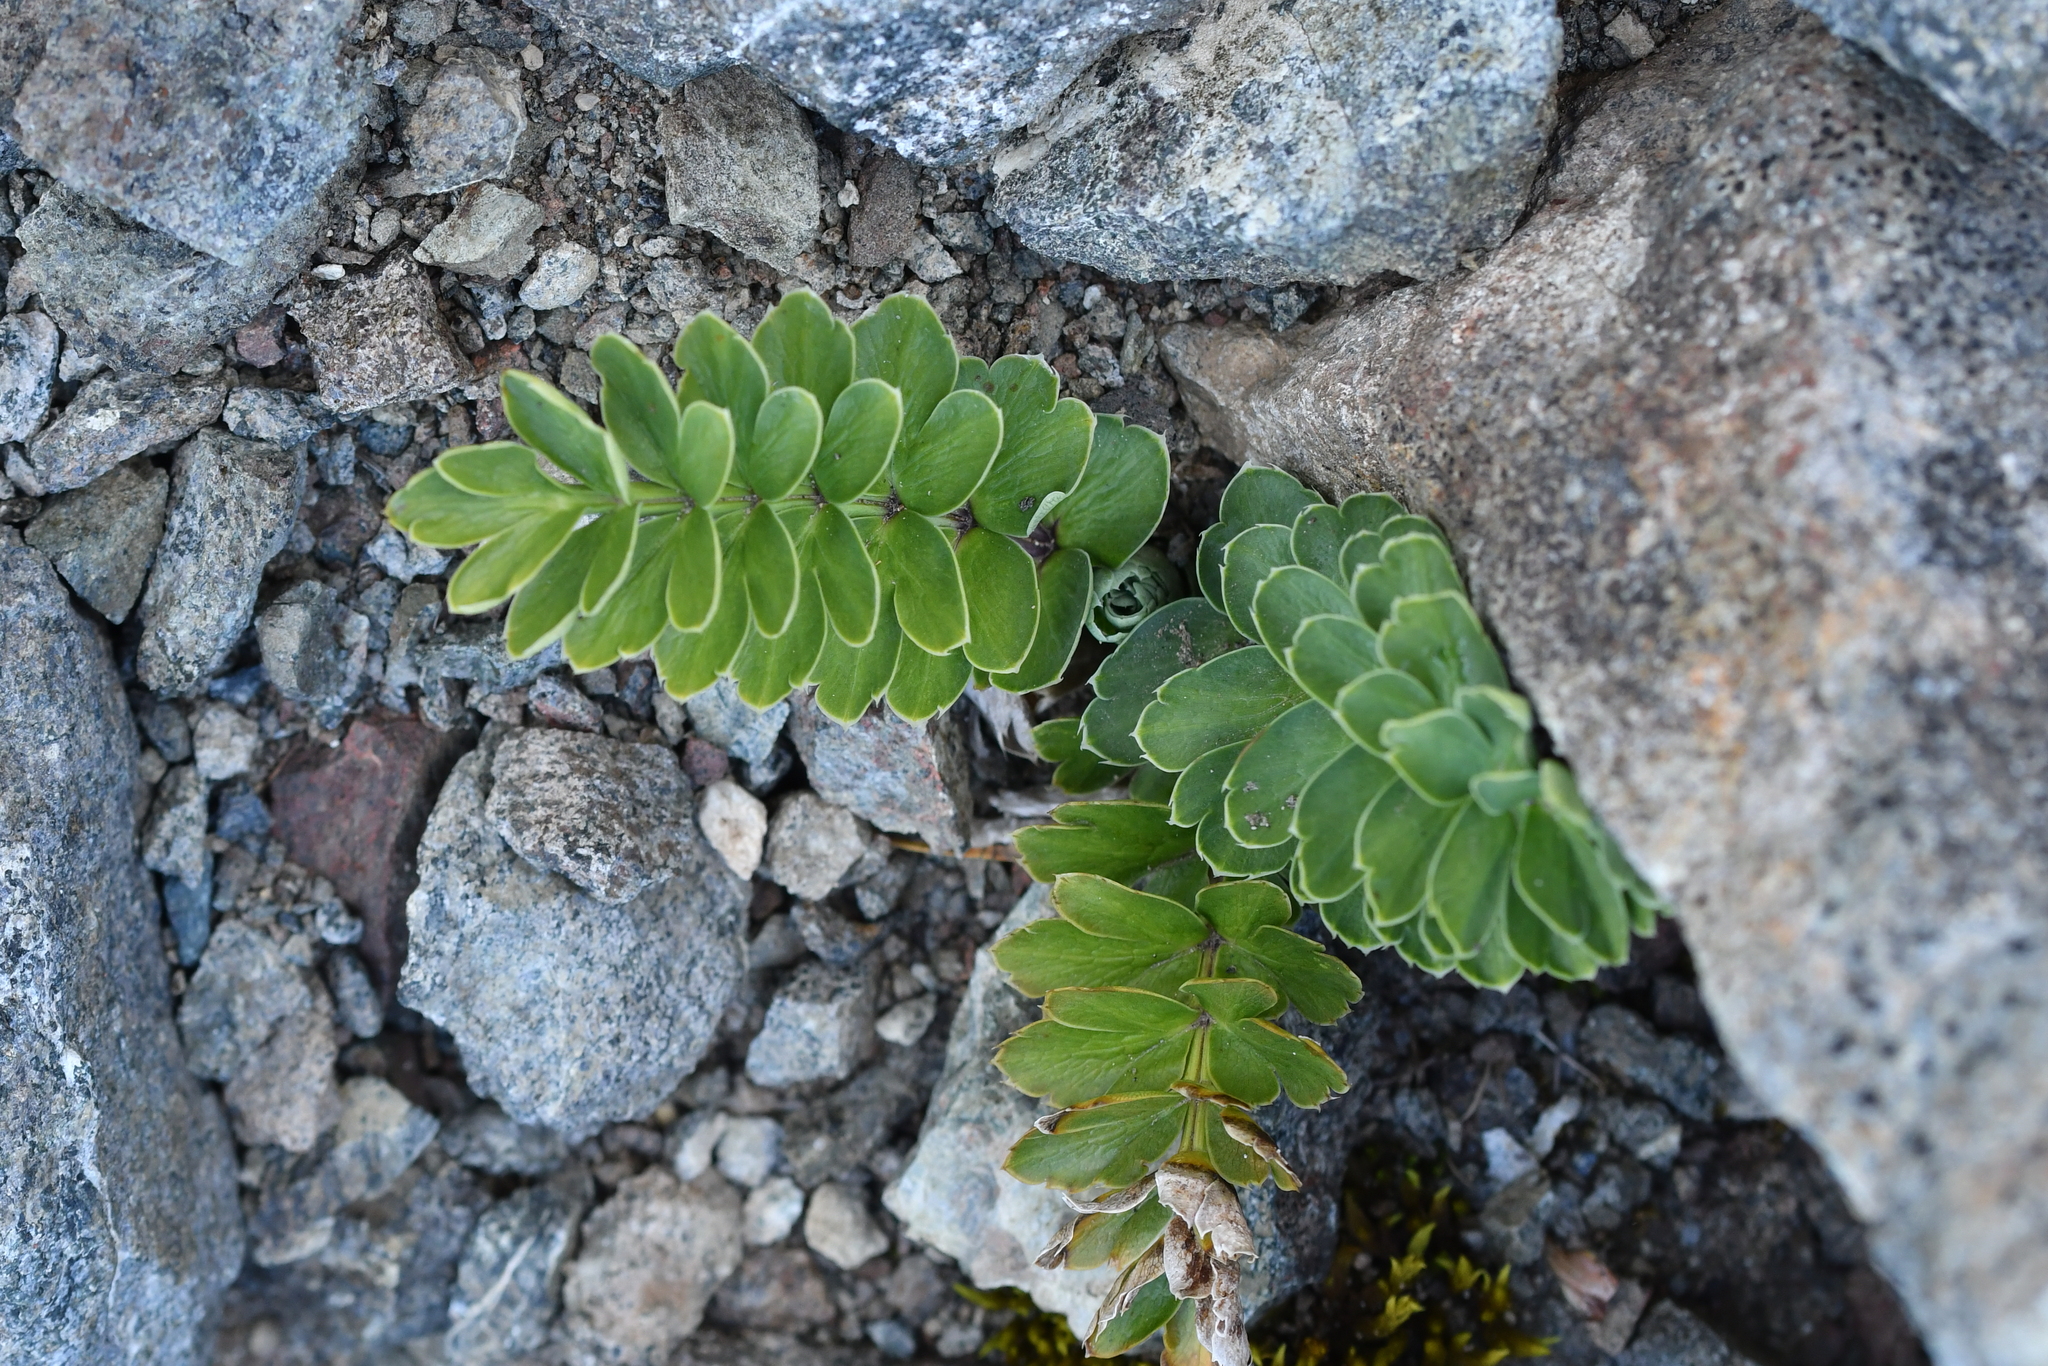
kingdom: Plantae
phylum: Tracheophyta
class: Magnoliopsida
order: Apiales
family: Apiaceae
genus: Anisotome
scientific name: Anisotome pilifera
